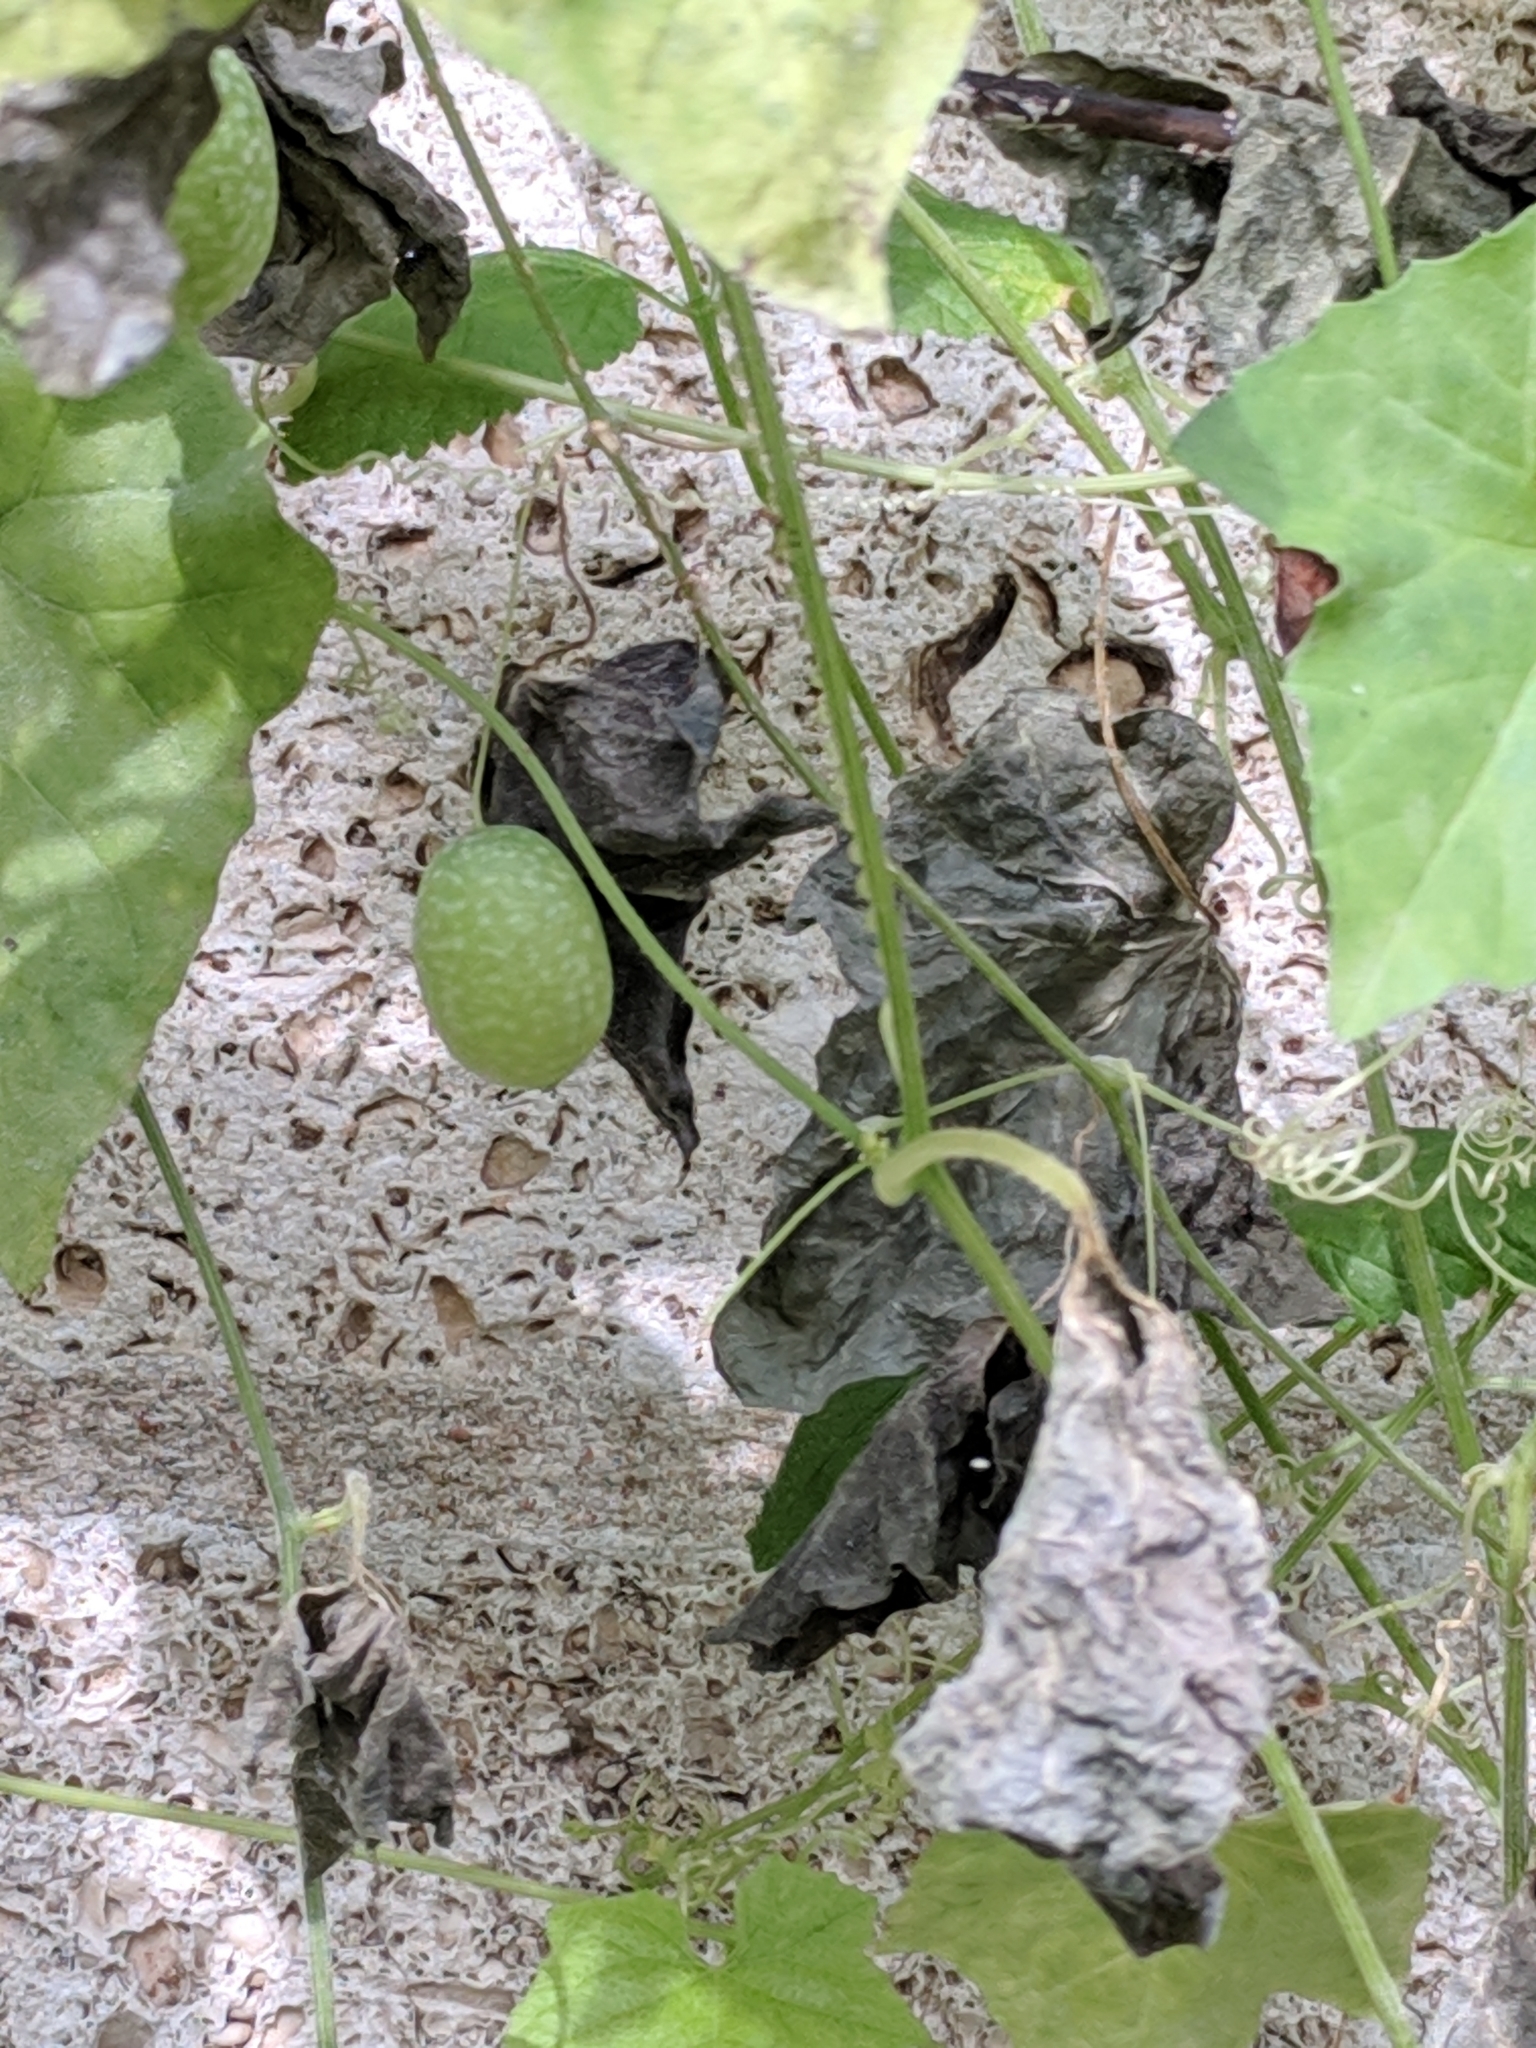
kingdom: Plantae
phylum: Tracheophyta
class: Magnoliopsida
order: Cucurbitales
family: Cucurbitaceae
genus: Melothria
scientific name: Melothria pendula
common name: Creeping-cucumber
